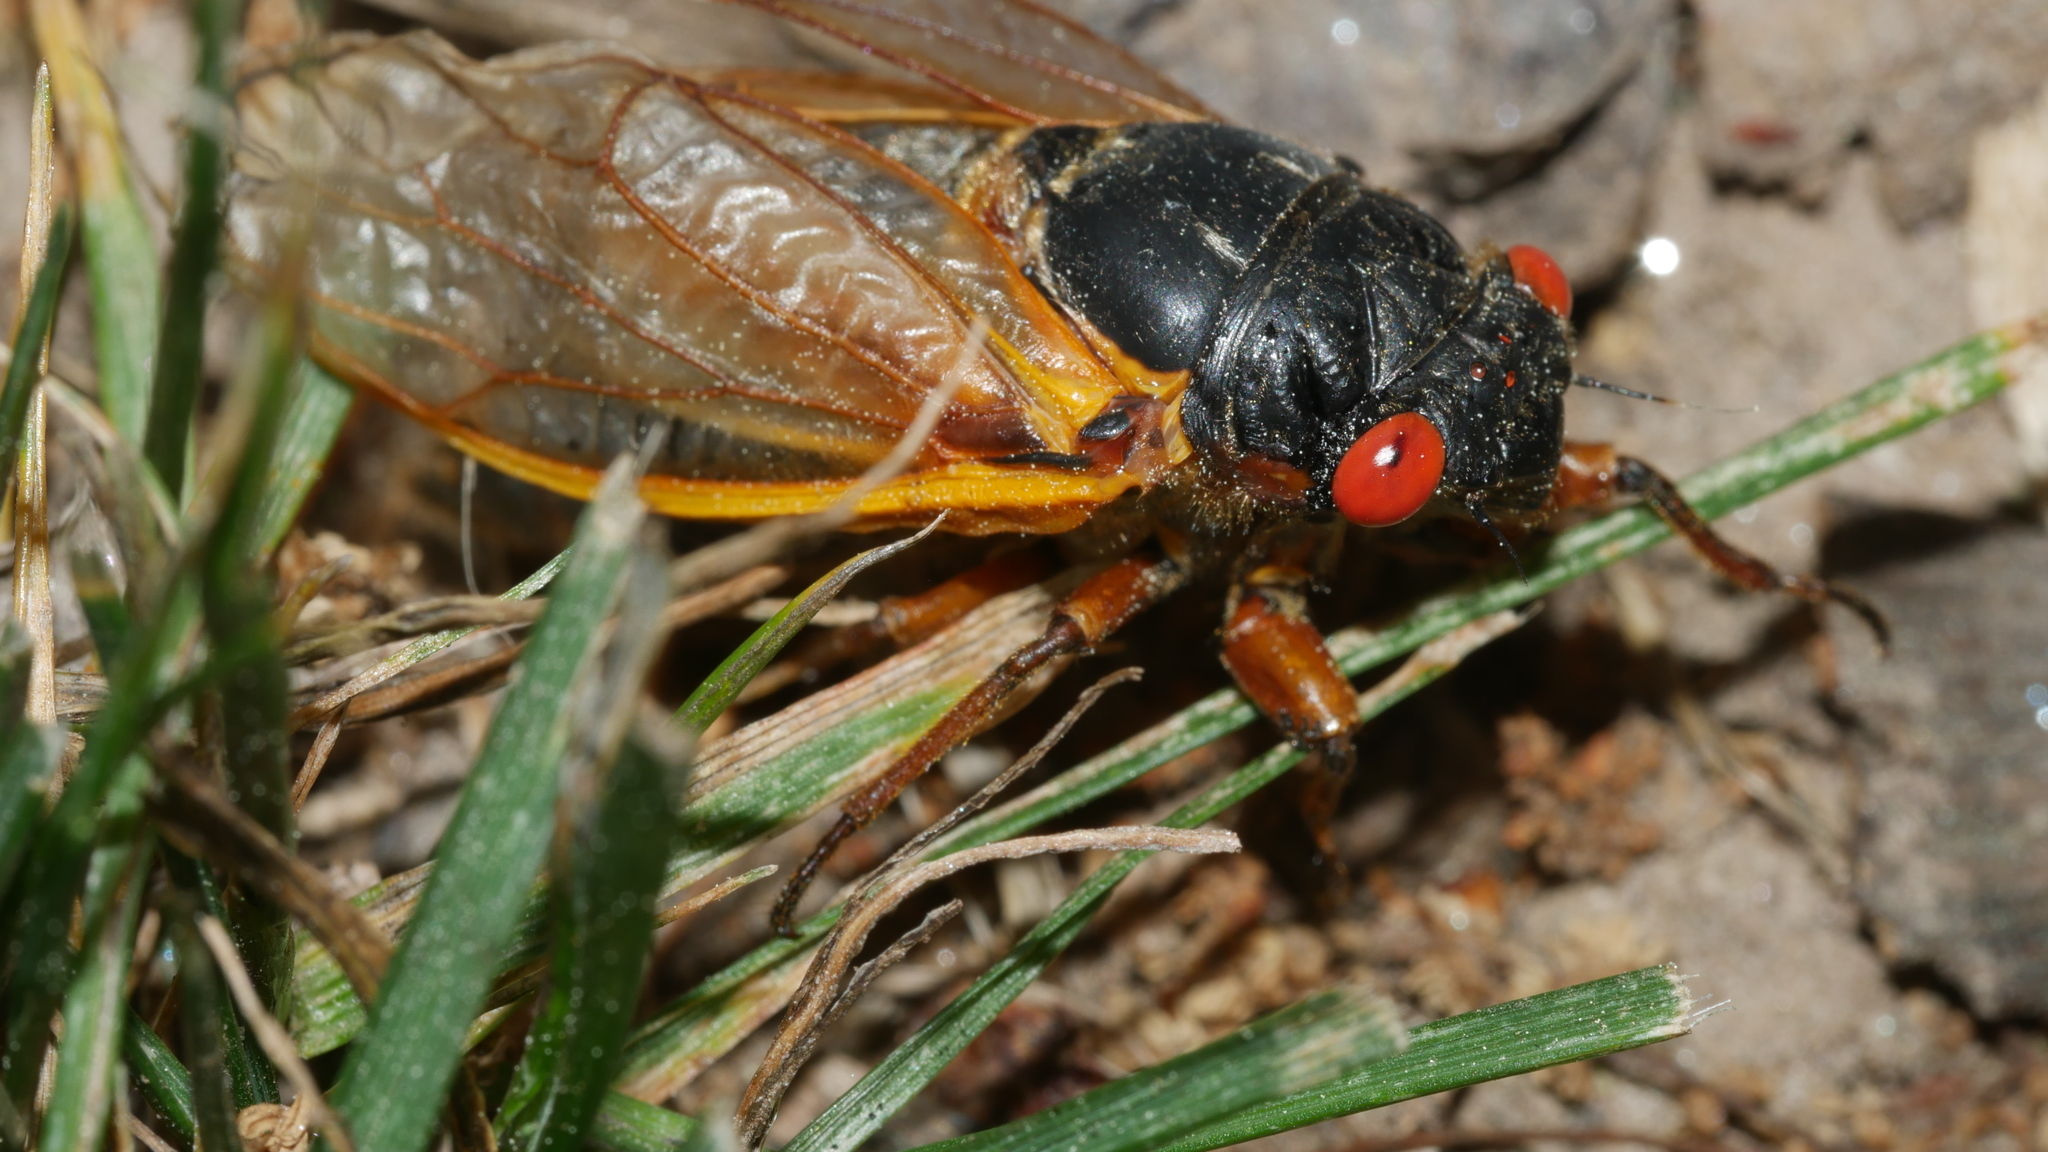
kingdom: Animalia
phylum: Arthropoda
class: Insecta
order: Hemiptera
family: Cicadidae
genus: Magicicada
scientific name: Magicicada septendecim
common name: Periodical cicada
